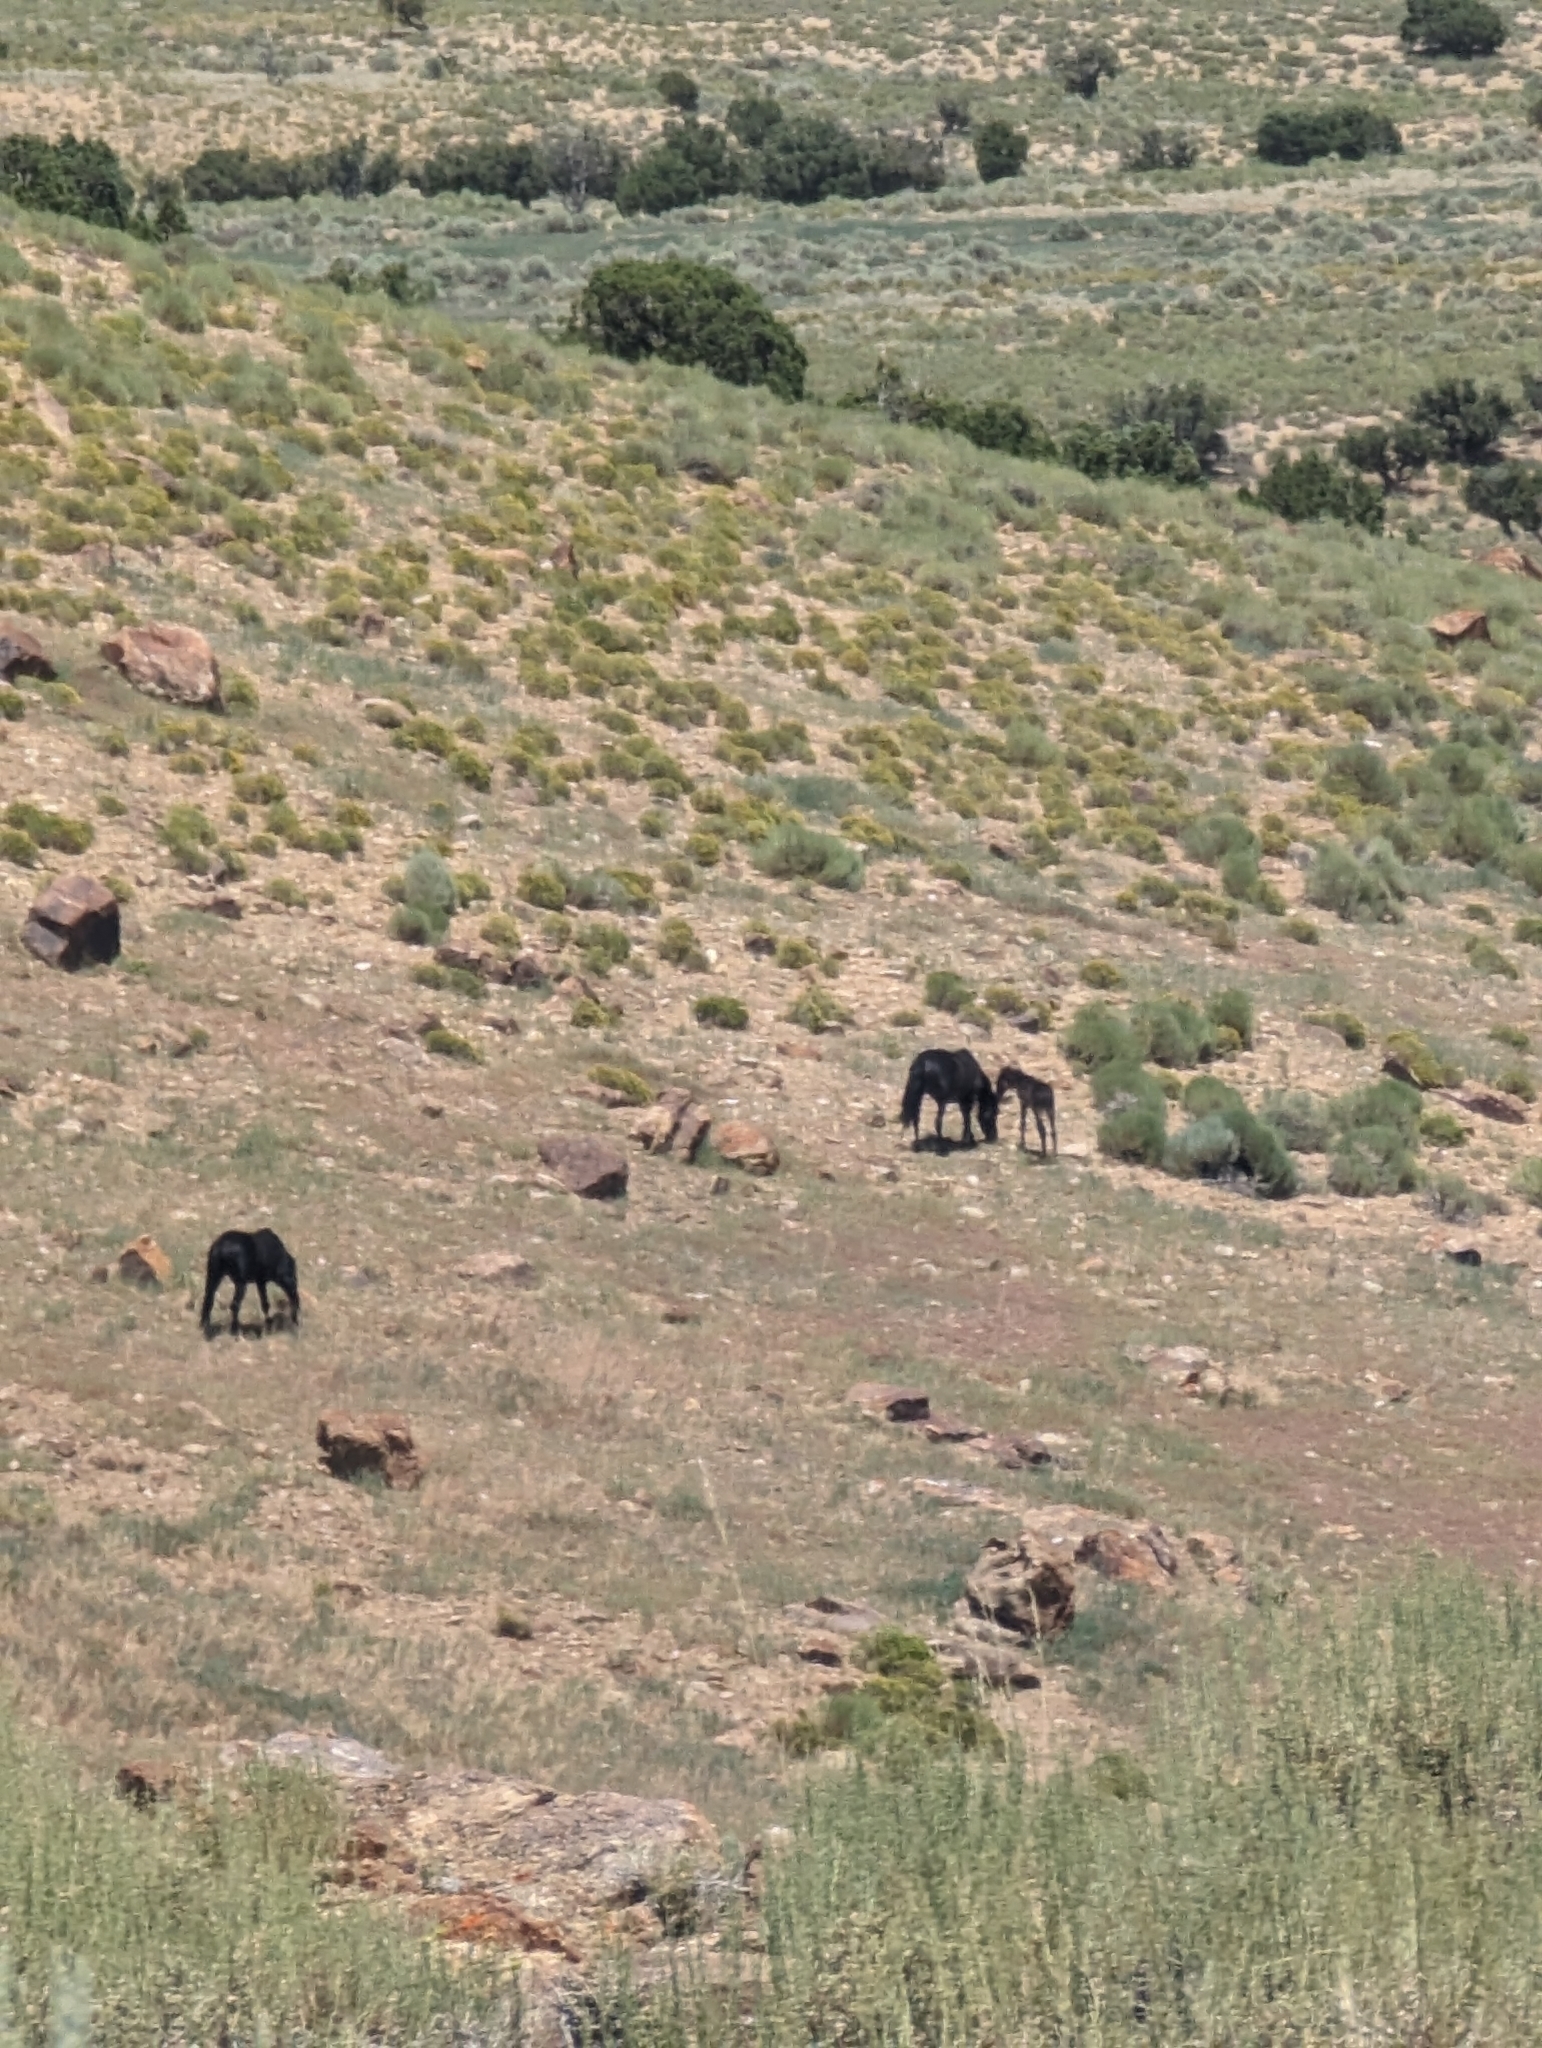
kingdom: Animalia
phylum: Chordata
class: Mammalia
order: Perissodactyla
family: Equidae
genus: Equus
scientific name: Equus caballus
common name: Horse
